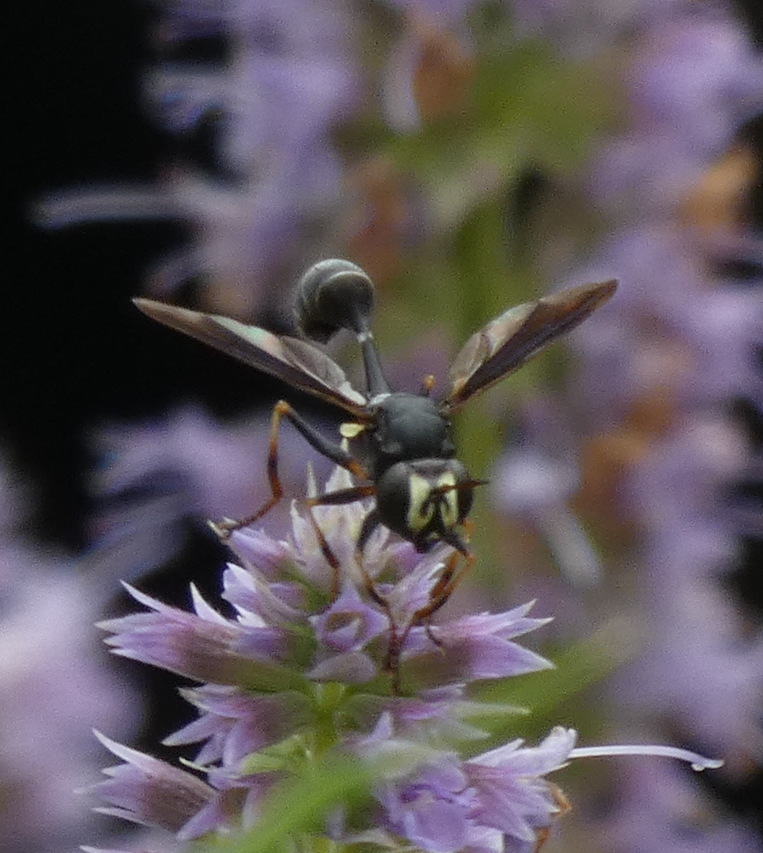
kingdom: Animalia
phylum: Arthropoda
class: Insecta
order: Diptera
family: Conopidae
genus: Physocephala
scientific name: Physocephala tibialis
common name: Common eastern physocephala
